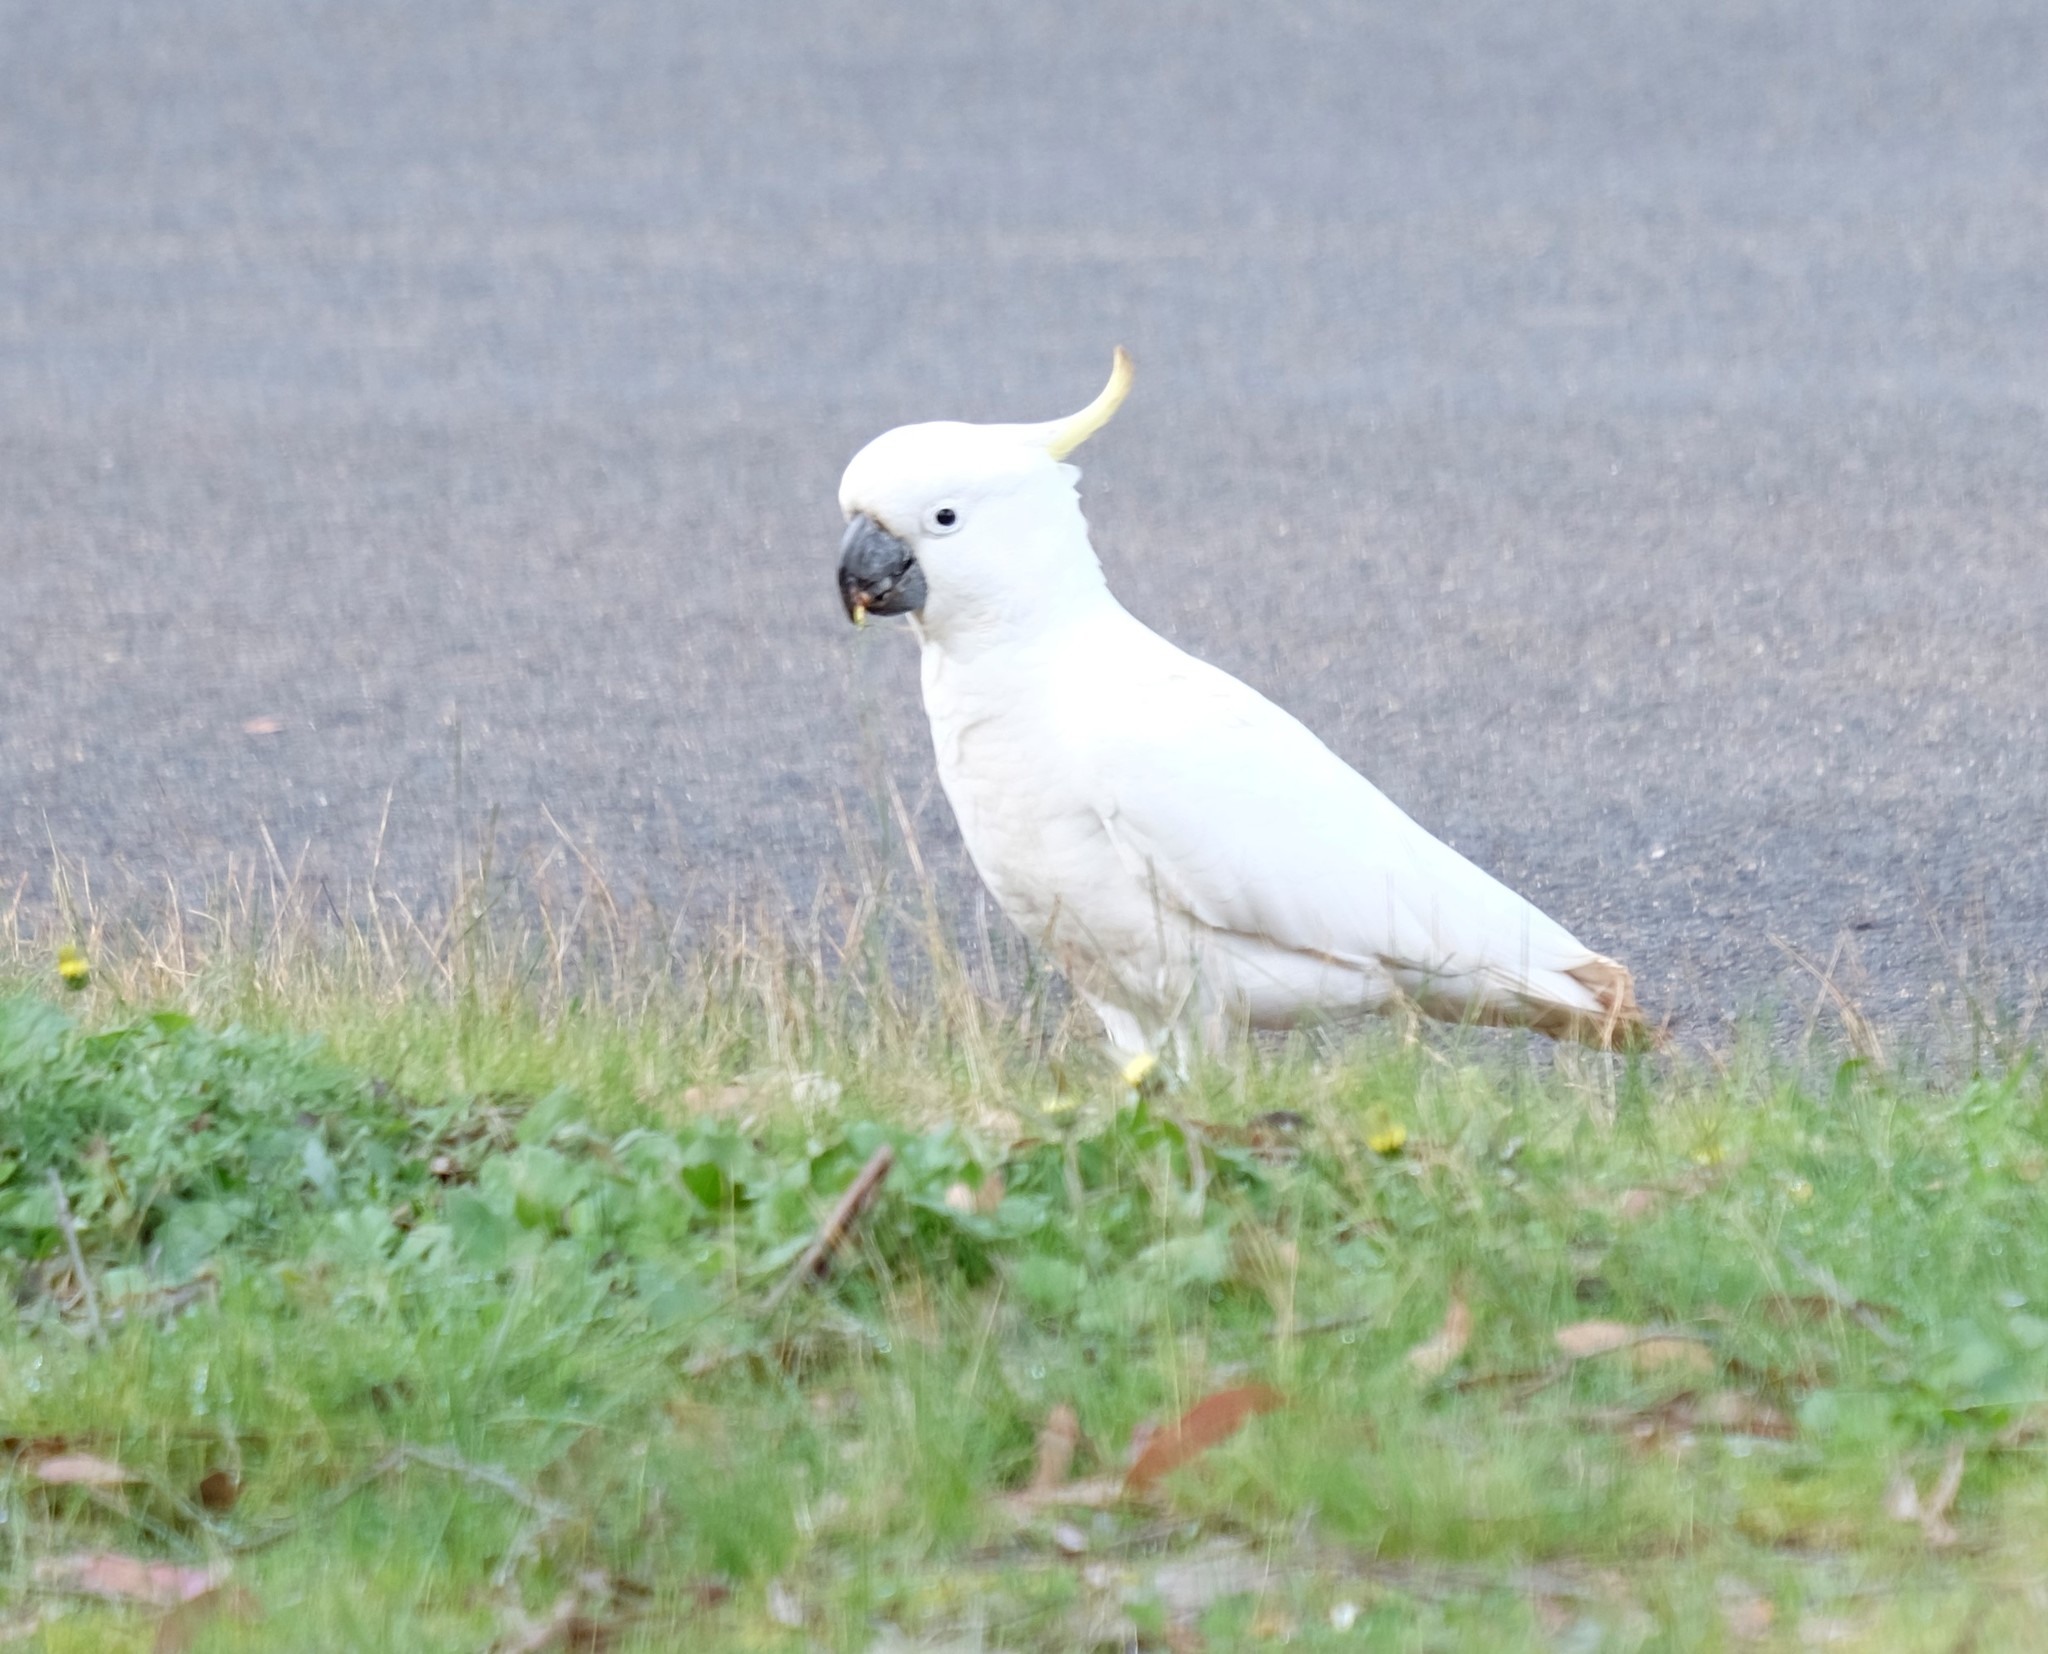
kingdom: Animalia
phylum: Chordata
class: Aves
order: Psittaciformes
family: Psittacidae
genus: Cacatua
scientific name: Cacatua galerita
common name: Sulphur-crested cockatoo
